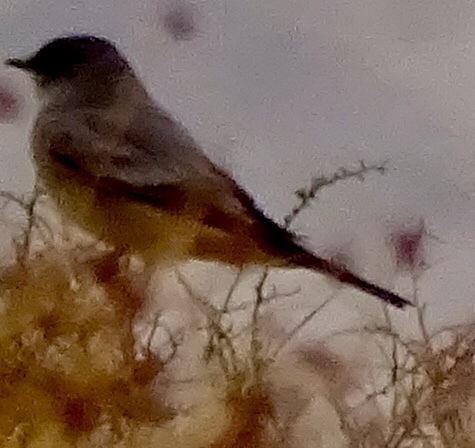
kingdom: Animalia
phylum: Chordata
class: Aves
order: Passeriformes
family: Tyrannidae
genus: Sayornis
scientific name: Sayornis saya
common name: Say's phoebe
